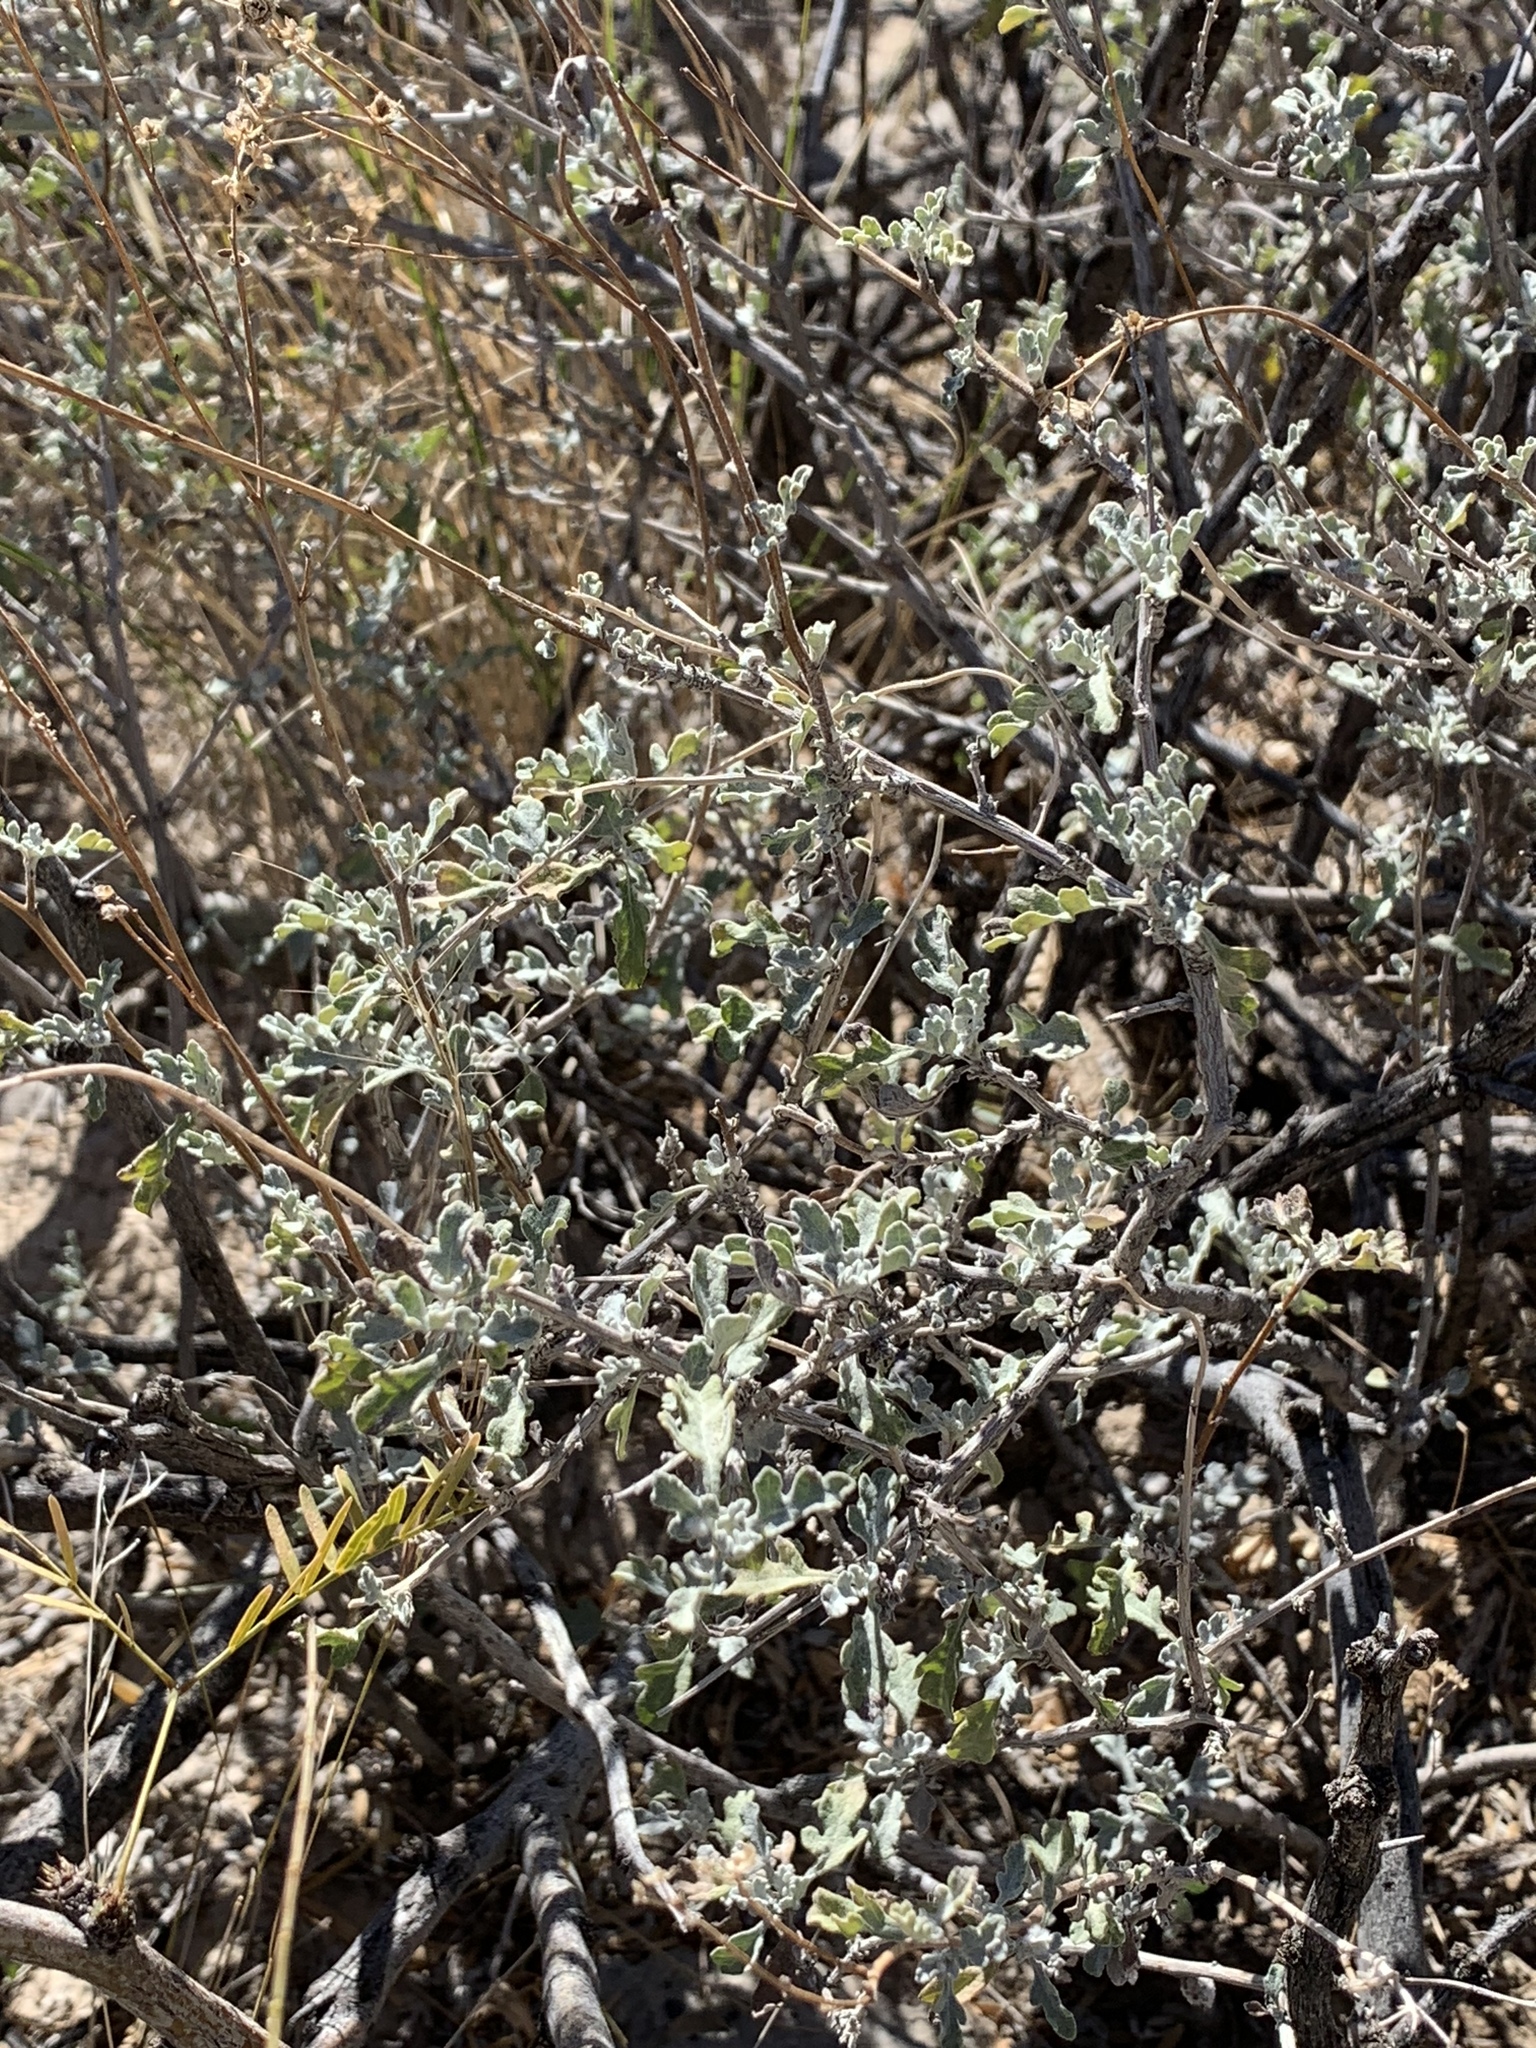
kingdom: Plantae
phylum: Tracheophyta
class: Magnoliopsida
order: Asterales
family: Asteraceae
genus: Parthenium
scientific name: Parthenium incanum
